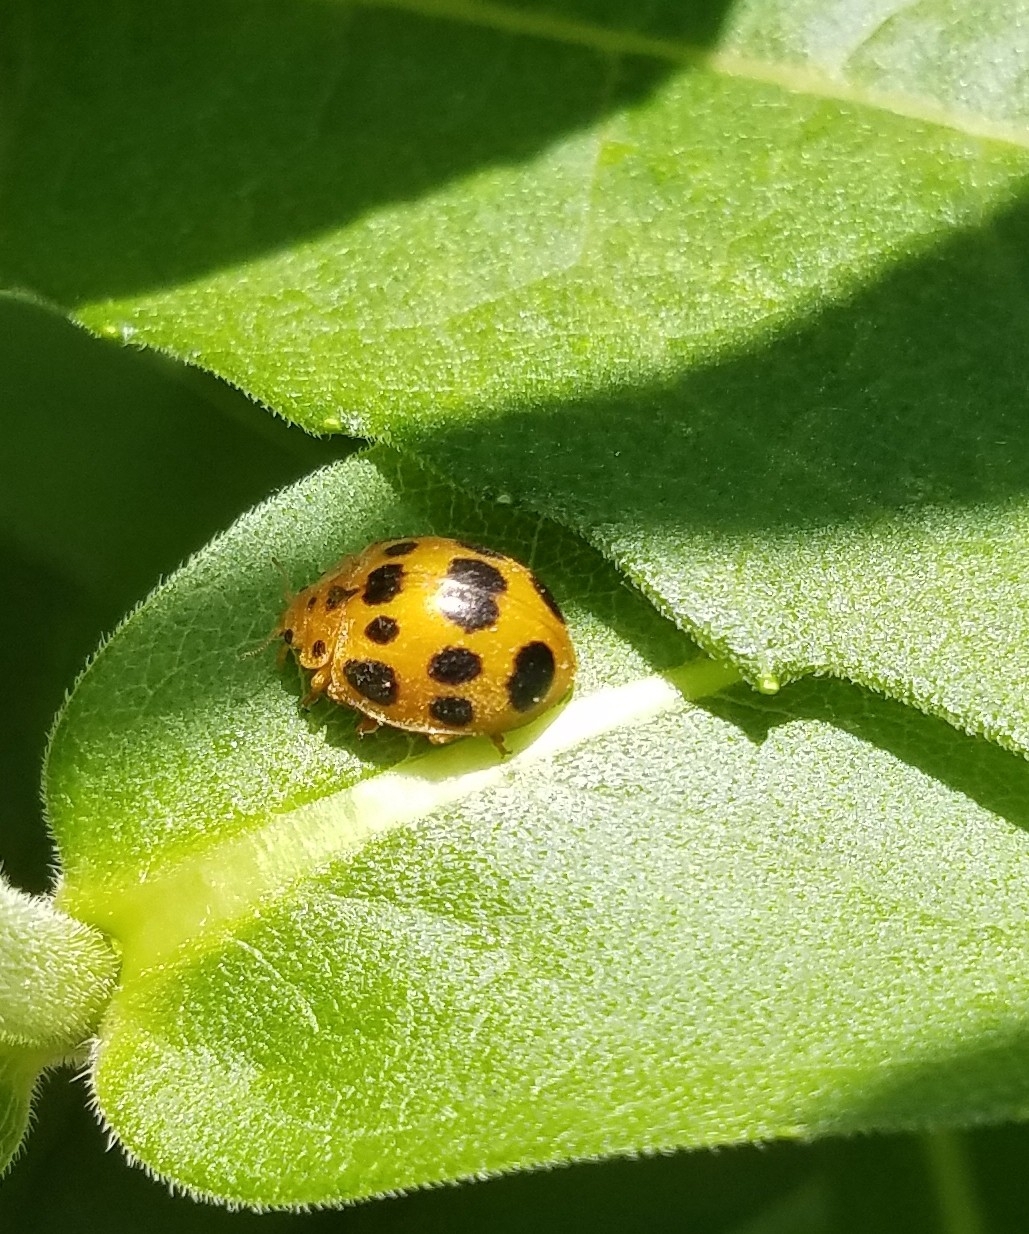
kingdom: Animalia
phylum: Arthropoda
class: Insecta
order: Coleoptera
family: Coccinellidae
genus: Epilachna
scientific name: Epilachna borealis
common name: Squash beetle
